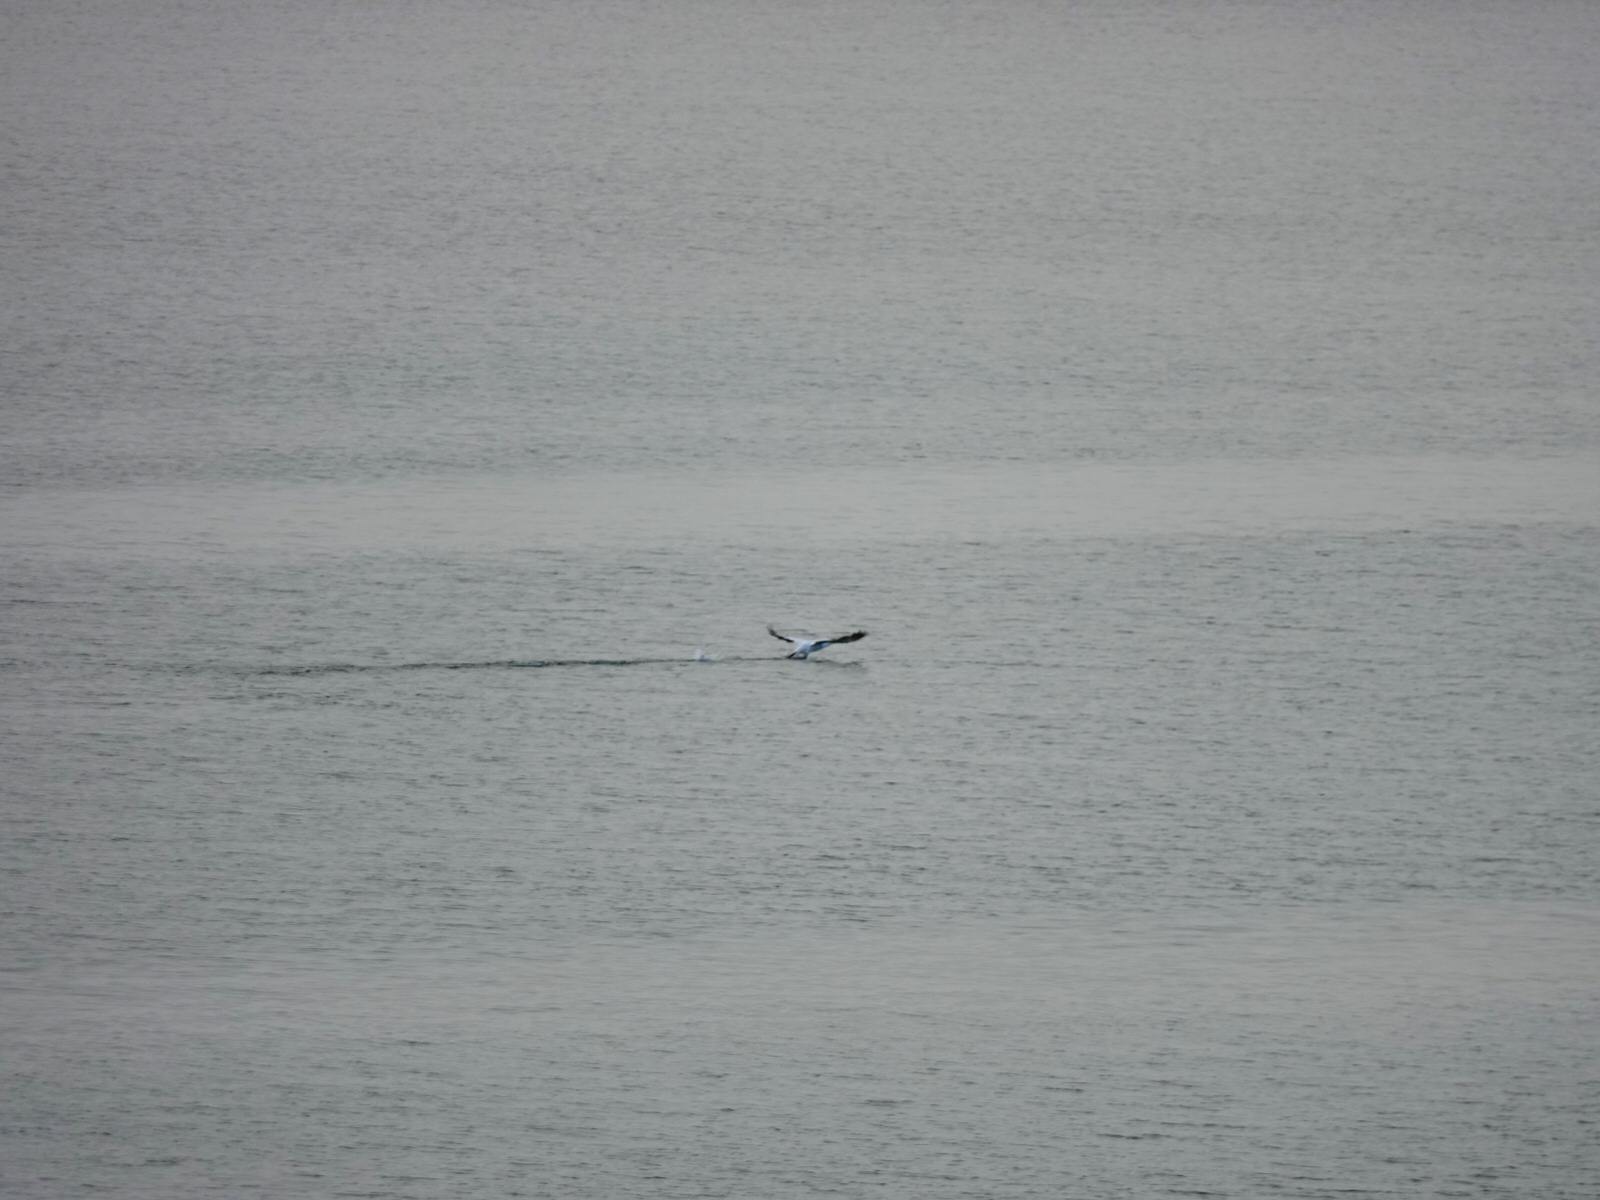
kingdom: Animalia
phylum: Chordata
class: Aves
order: Suliformes
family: Sulidae
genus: Morus
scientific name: Morus serrator
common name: Australasian gannet
